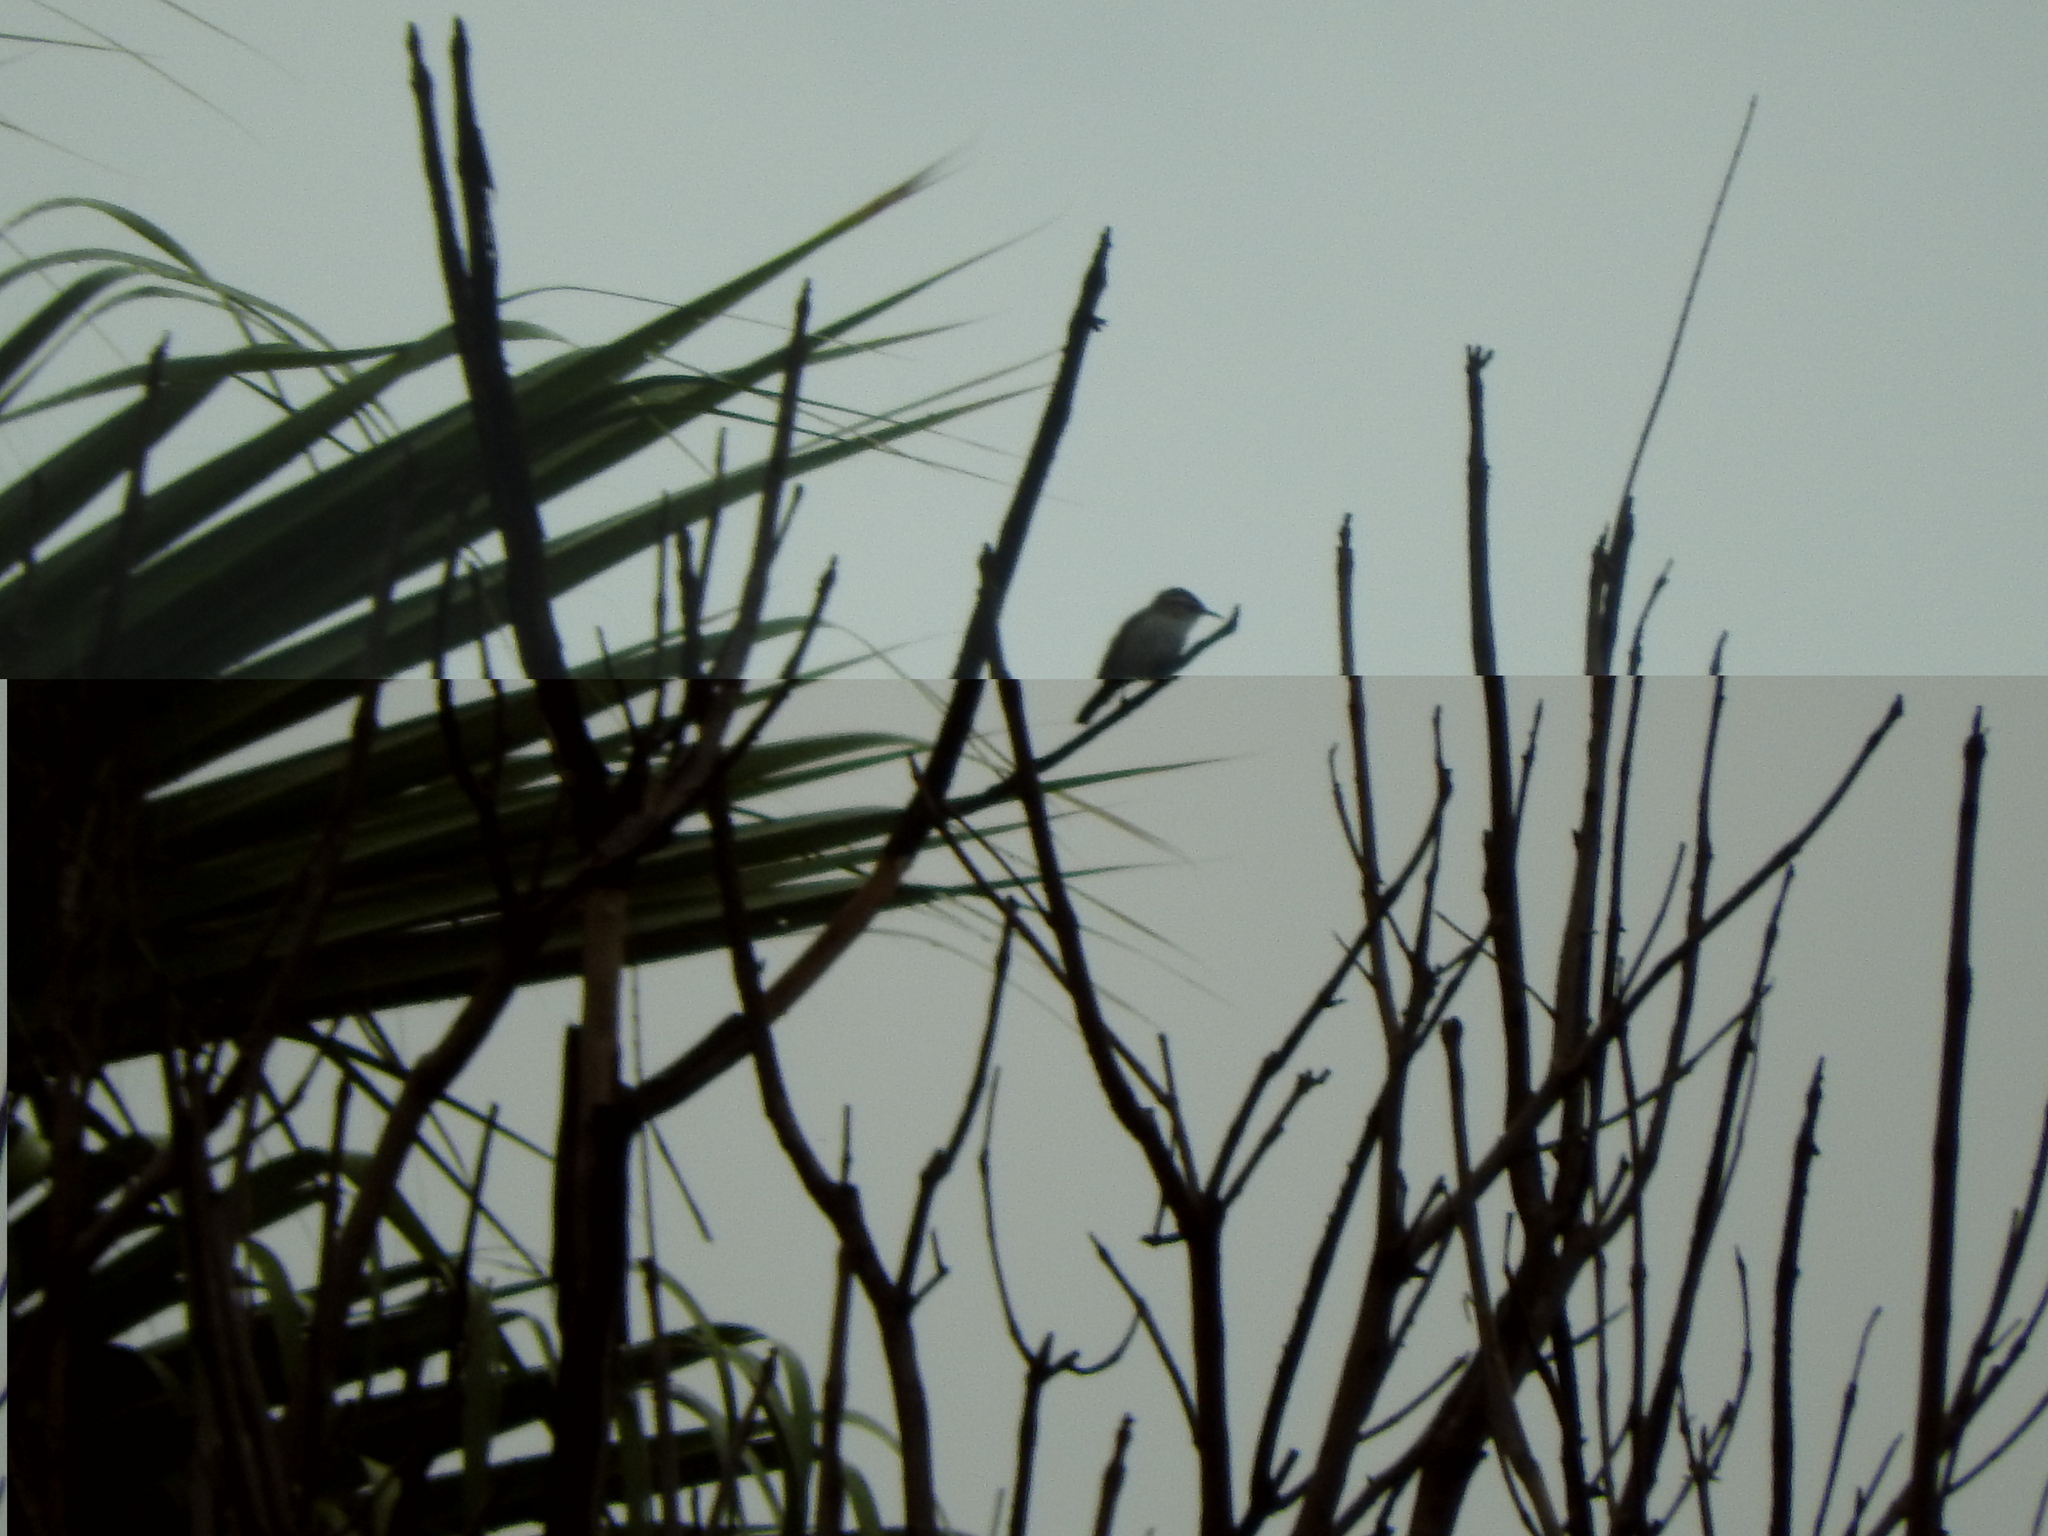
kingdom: Animalia
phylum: Chordata
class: Aves
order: Passeriformes
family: Troglodytidae
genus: Thryomanes
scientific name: Thryomanes bewickii
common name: Bewick's wren
